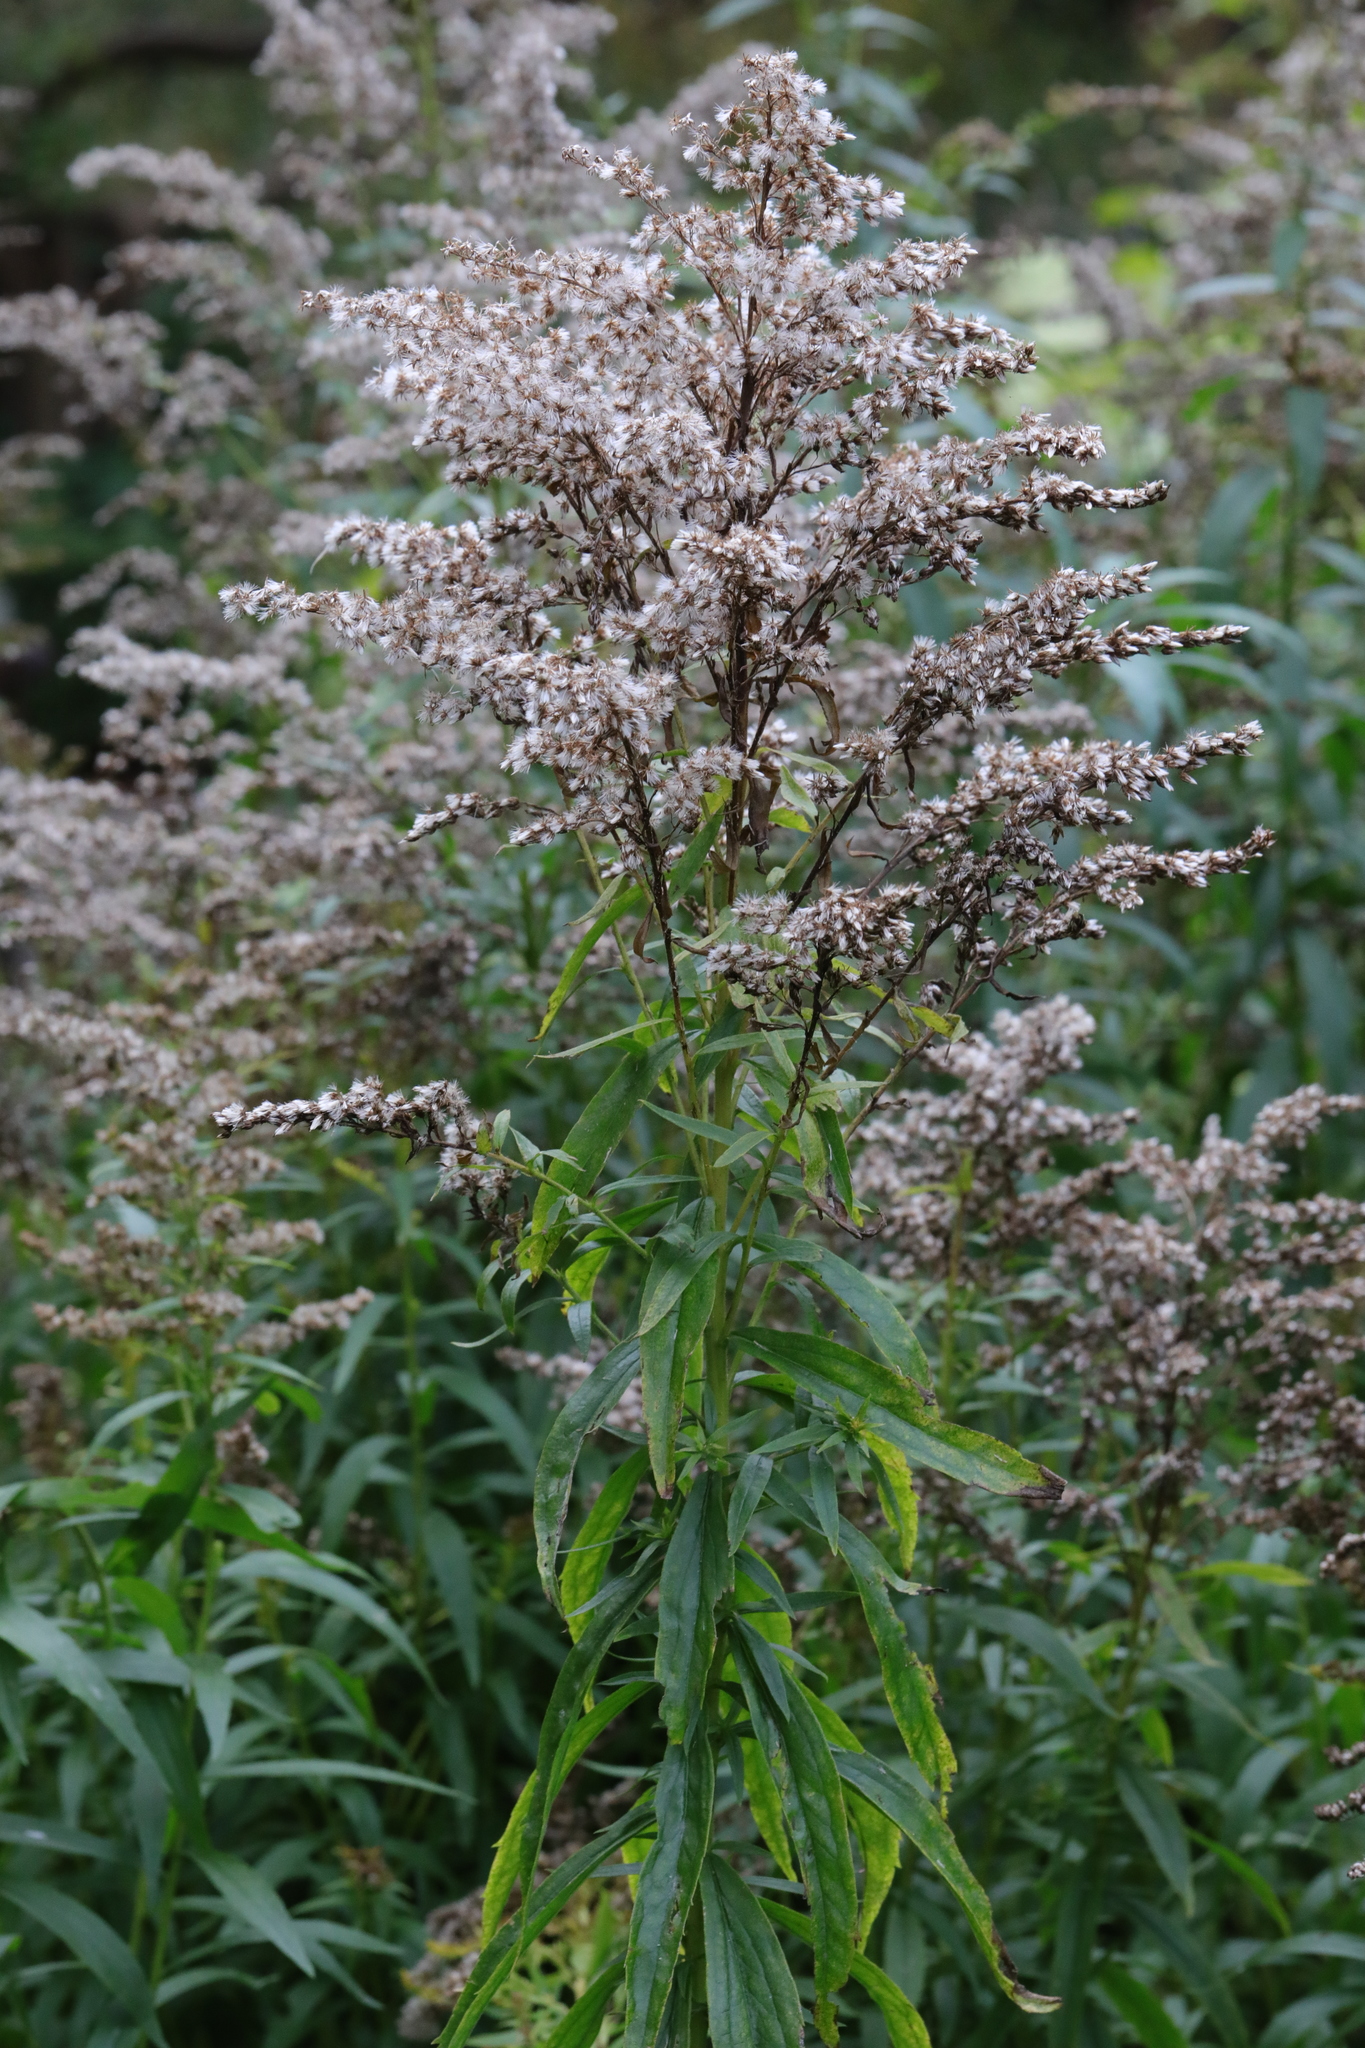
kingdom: Plantae
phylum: Tracheophyta
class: Magnoliopsida
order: Asterales
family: Asteraceae
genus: Solidago
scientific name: Solidago canadensis
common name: Canada goldenrod
